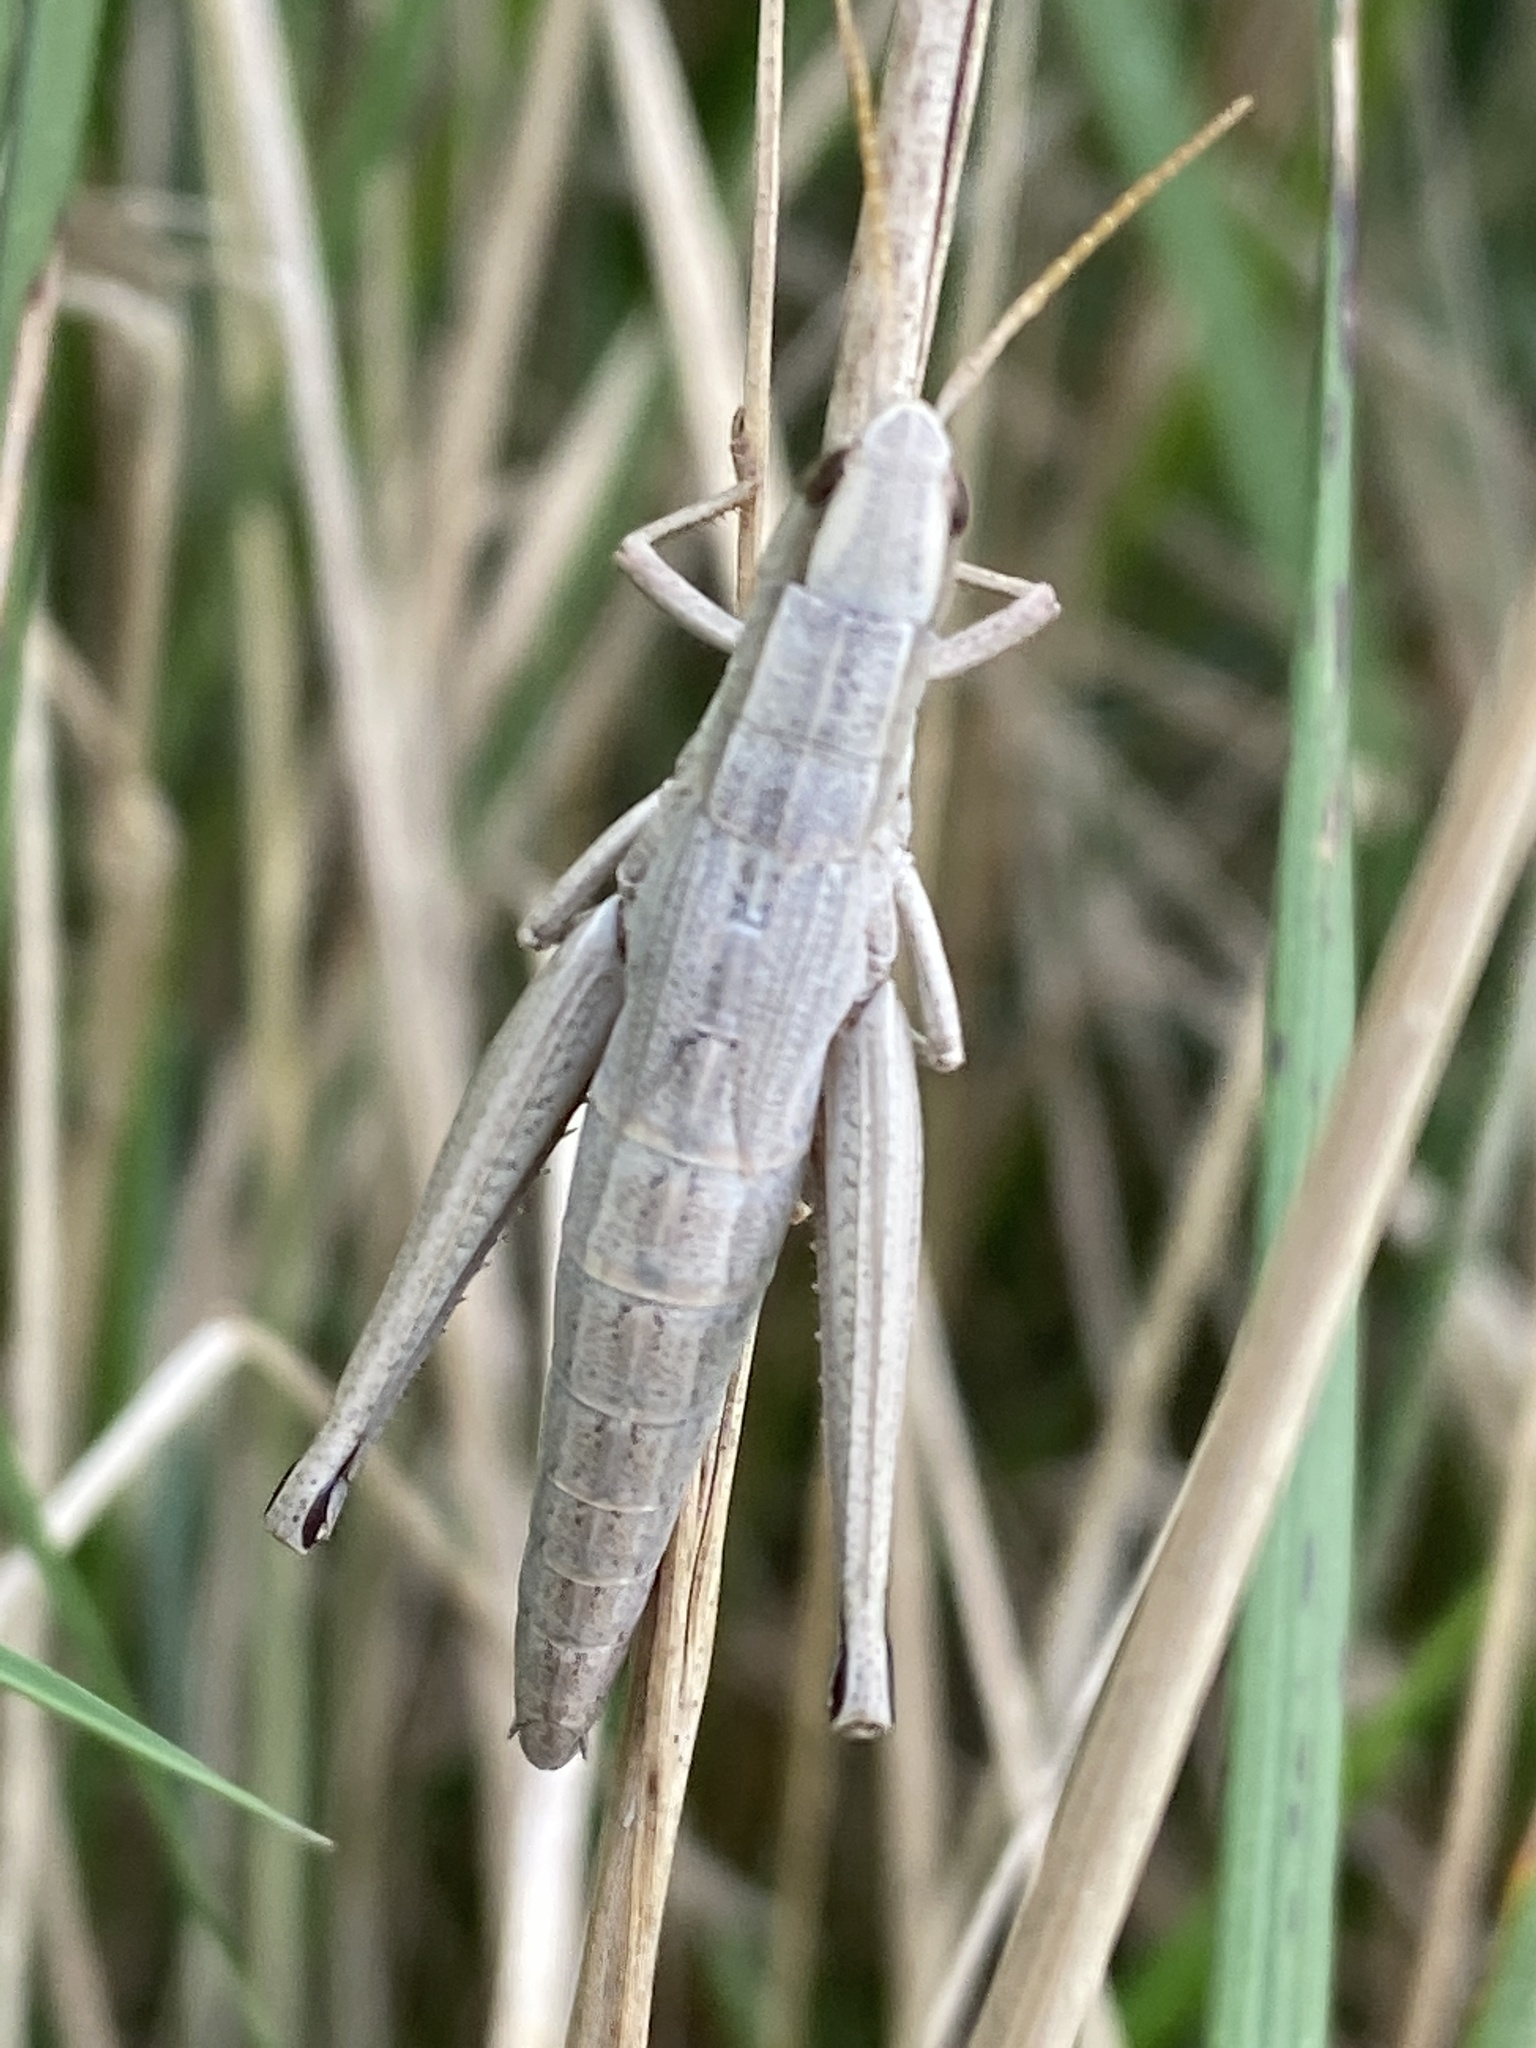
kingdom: Animalia
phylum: Arthropoda
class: Insecta
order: Orthoptera
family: Acrididae
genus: Chrysochraon
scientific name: Chrysochraon dispar
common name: Large gold grasshopper
